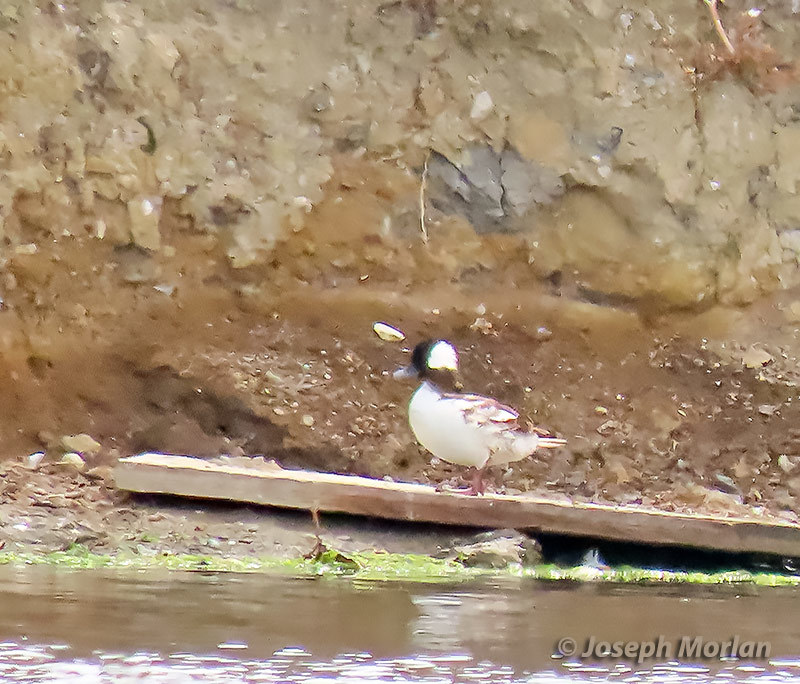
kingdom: Animalia
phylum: Chordata
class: Aves
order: Anseriformes
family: Anatidae
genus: Bucephala
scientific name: Bucephala albeola
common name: Bufflehead
